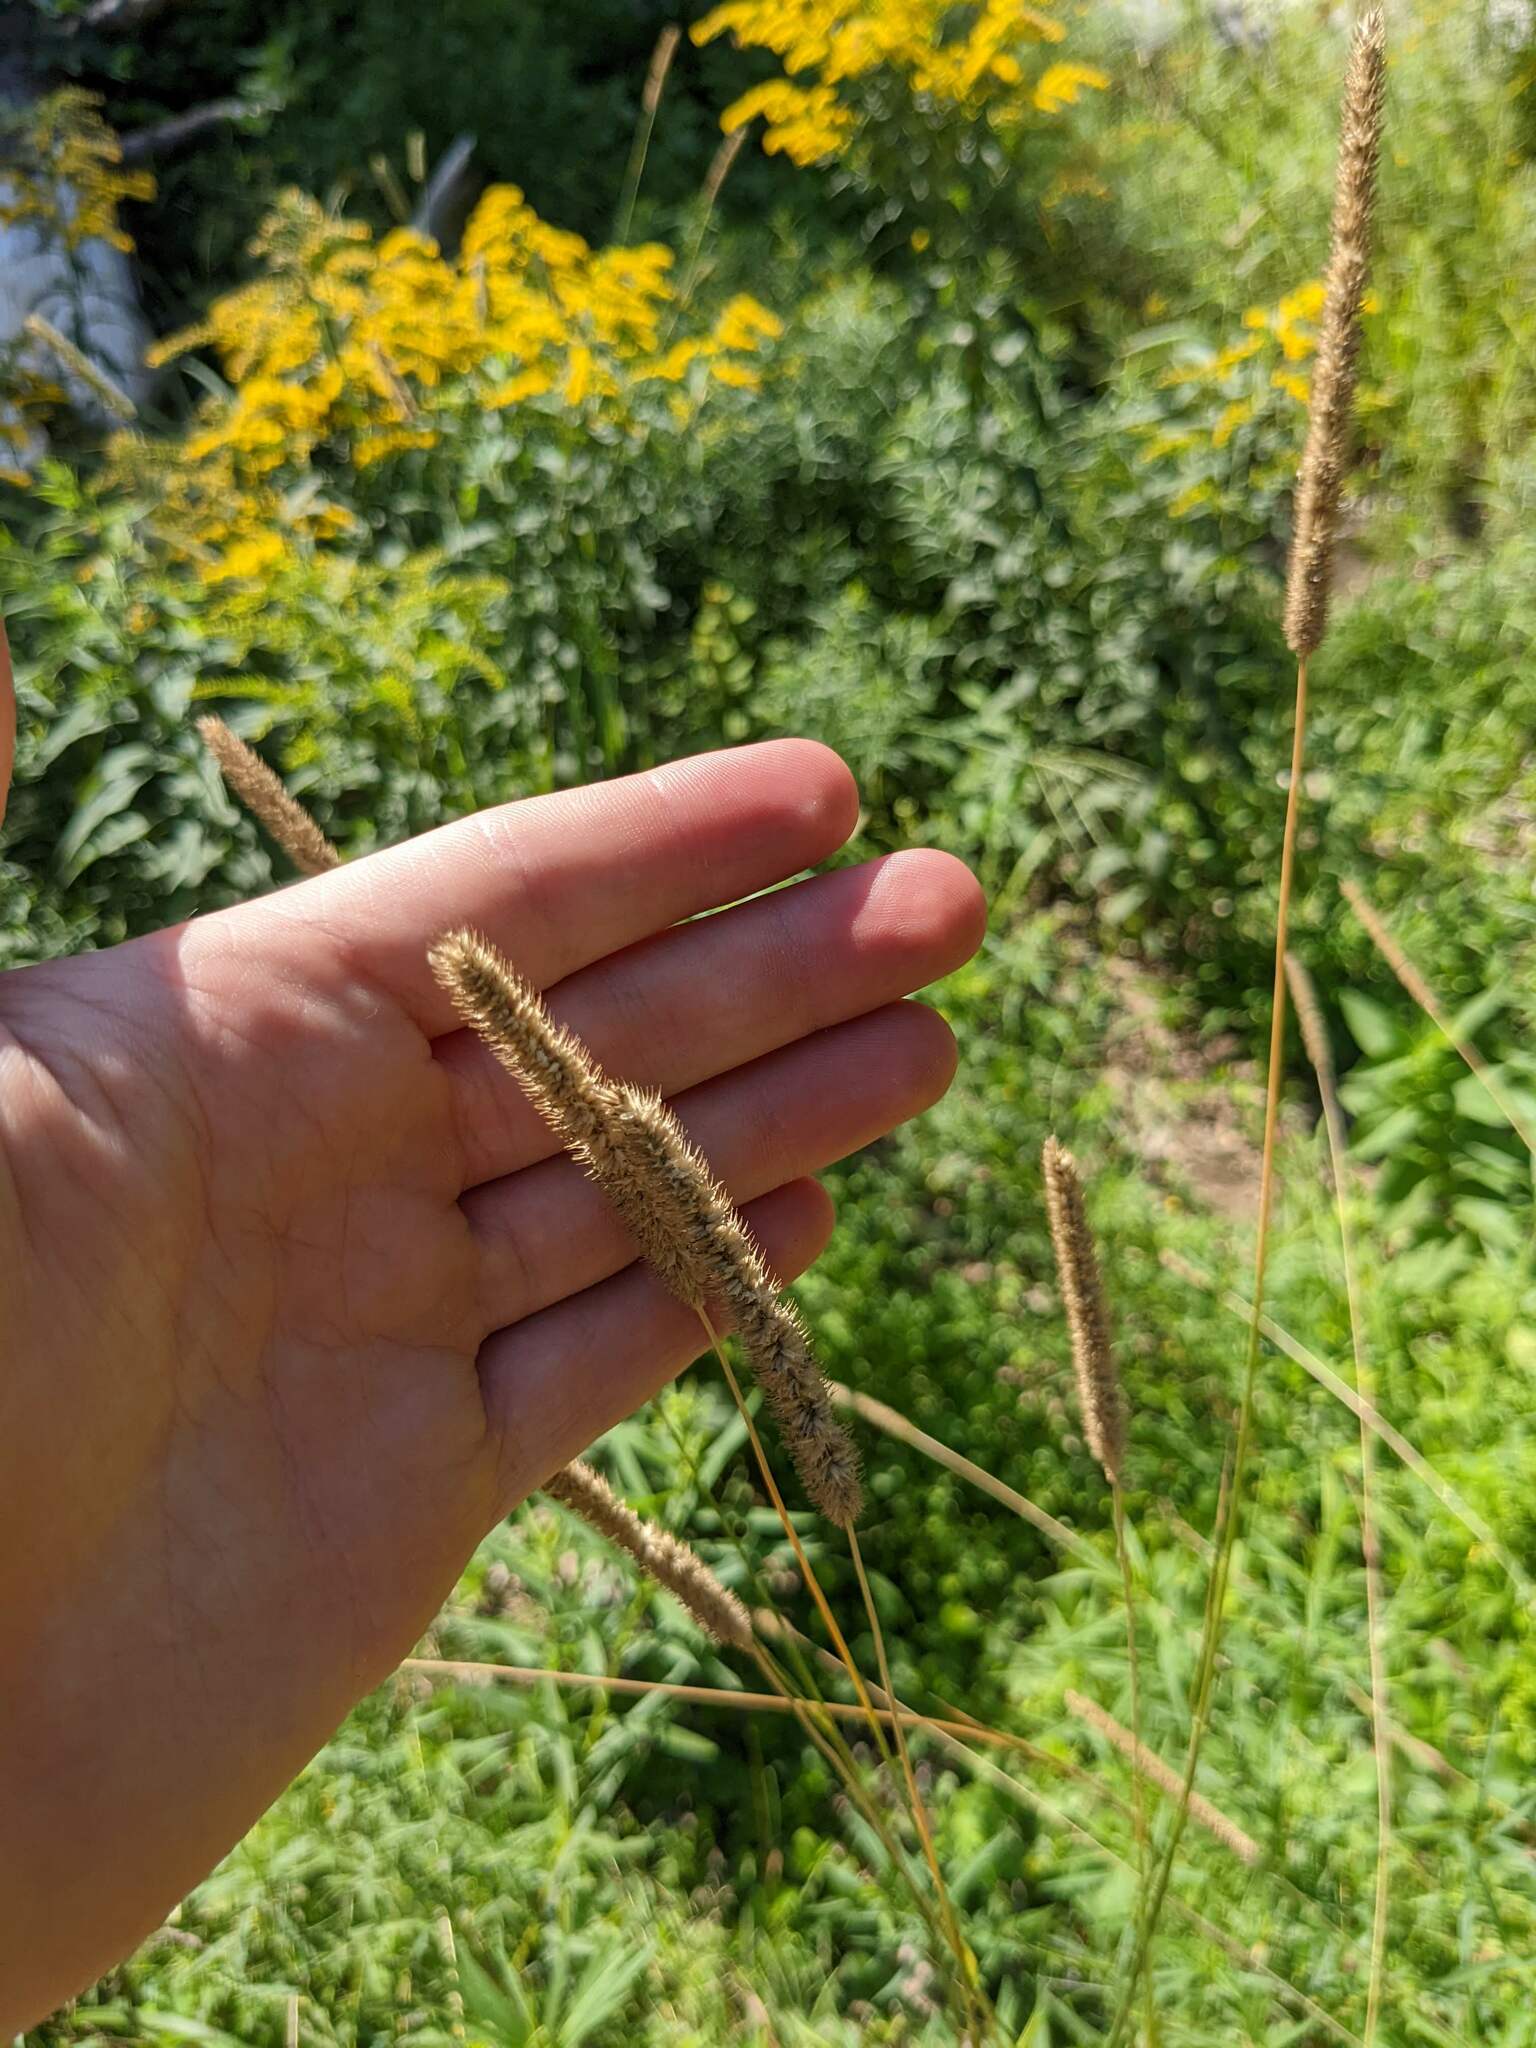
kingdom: Plantae
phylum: Tracheophyta
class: Liliopsida
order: Poales
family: Poaceae
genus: Phleum
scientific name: Phleum pratense
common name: Timothy grass
